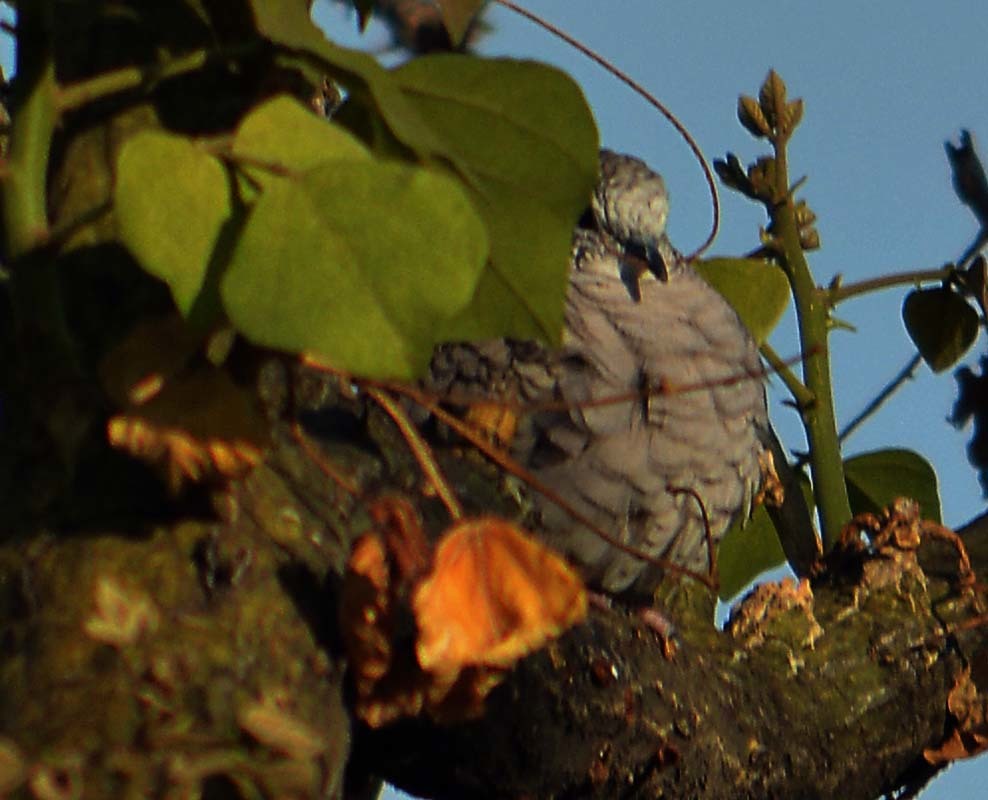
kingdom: Animalia
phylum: Chordata
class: Aves
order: Columbiformes
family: Columbidae
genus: Columbina
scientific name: Columbina inca
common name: Inca dove
